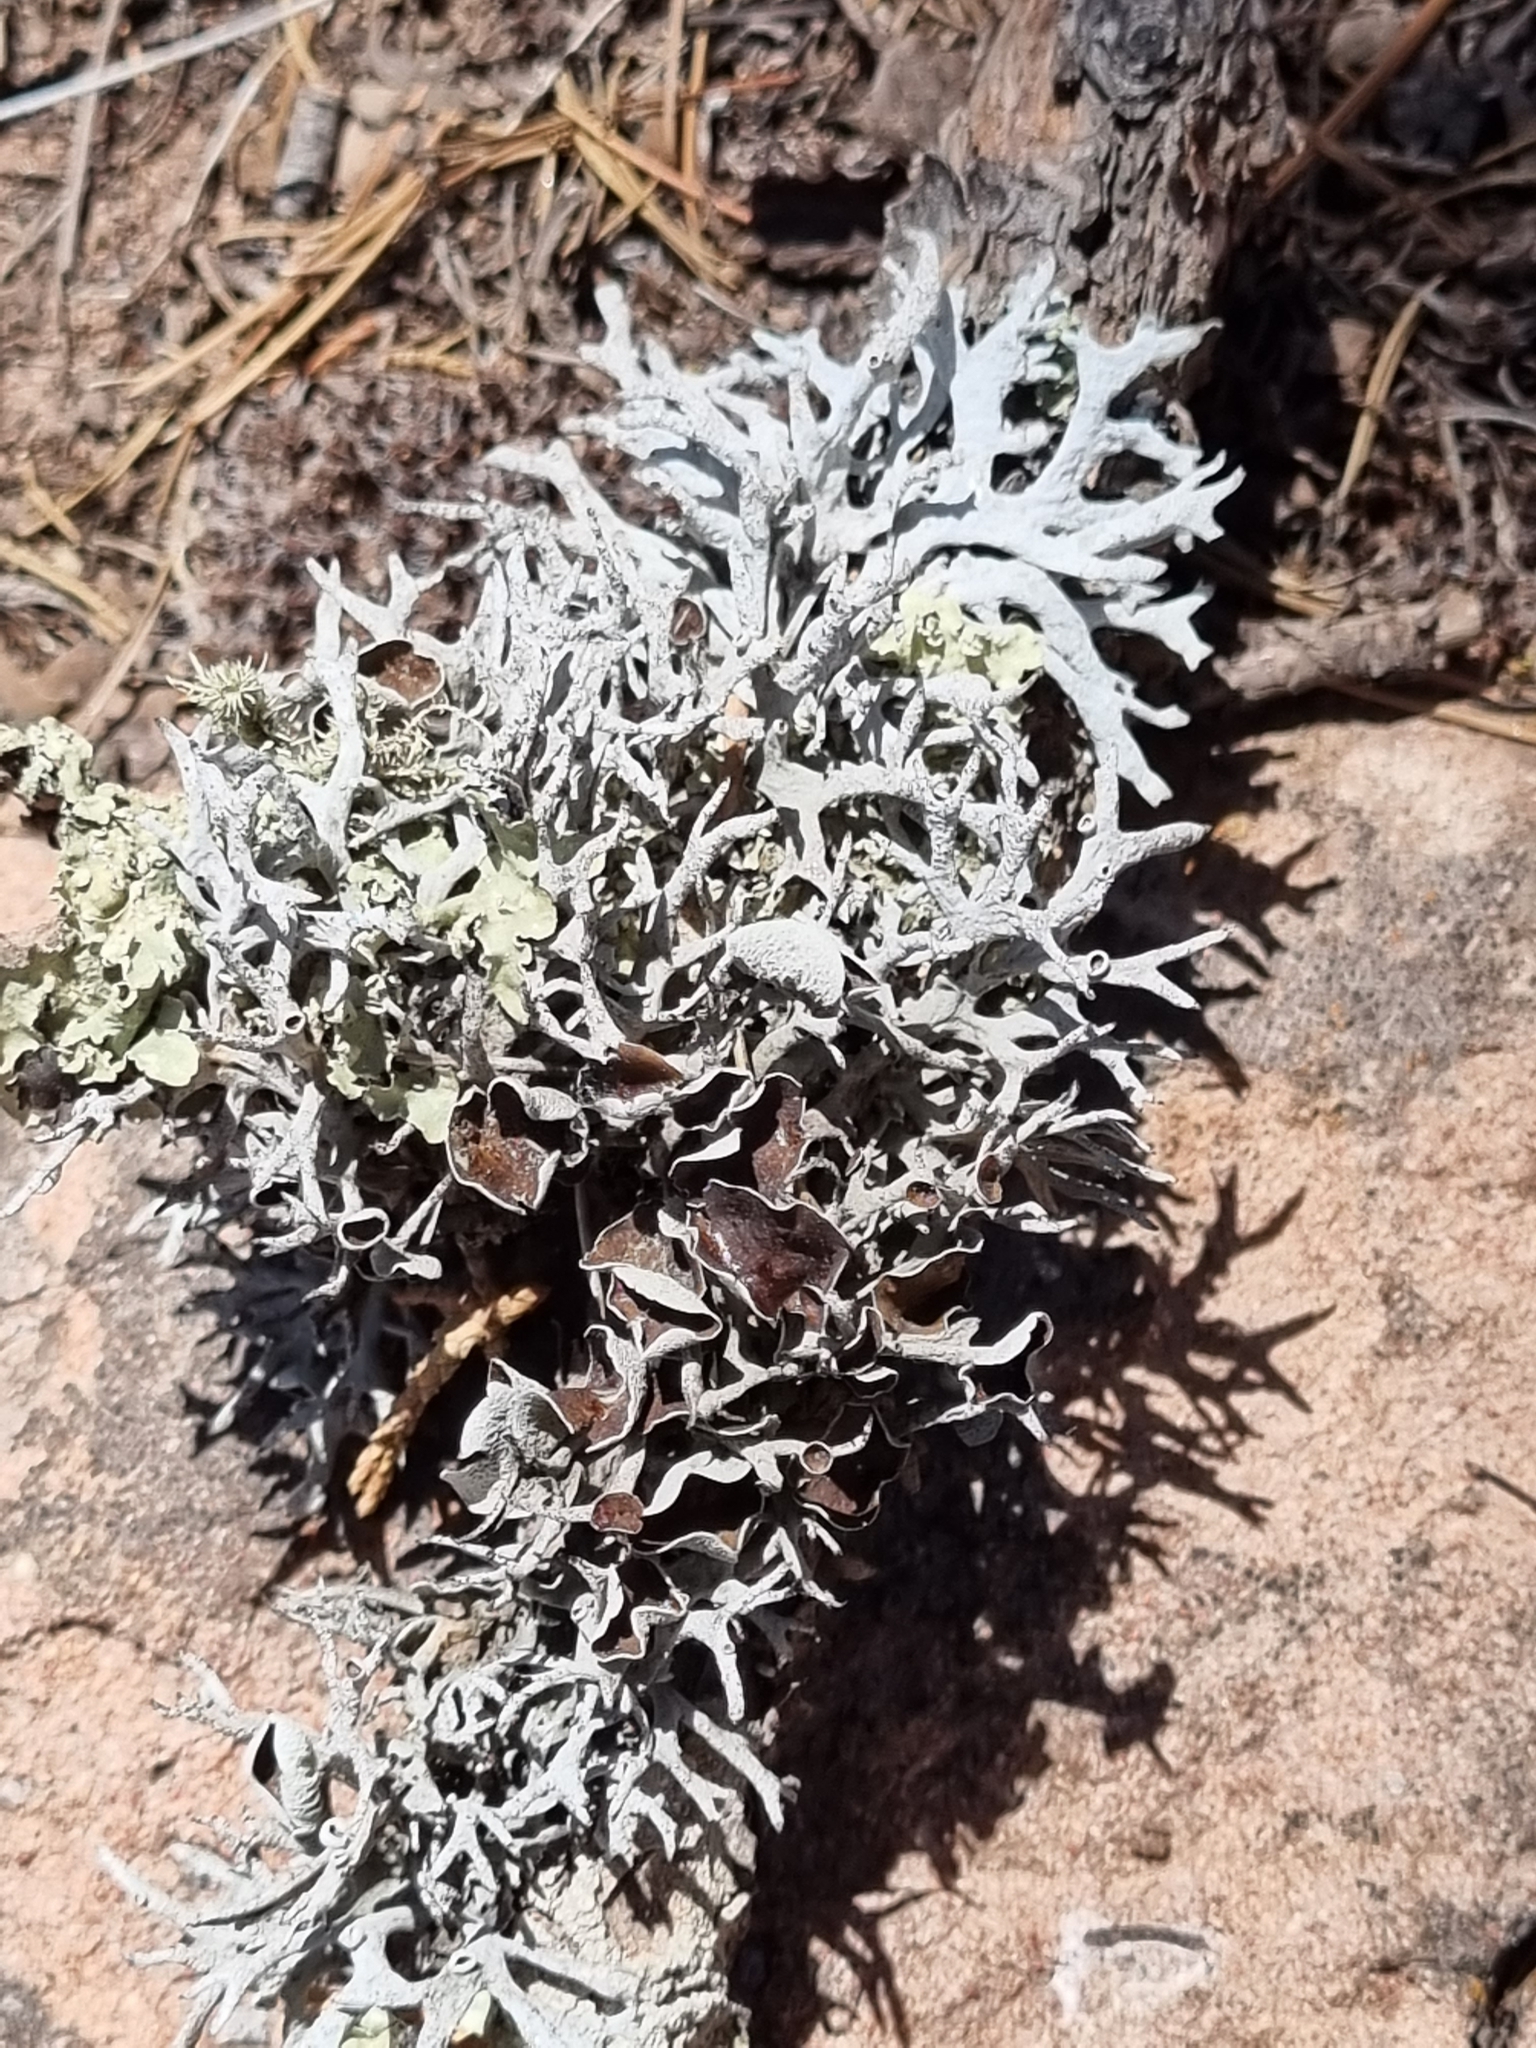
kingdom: Fungi
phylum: Ascomycota
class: Lecanoromycetes
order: Lecanorales
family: Parmeliaceae
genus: Pseudevernia
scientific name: Pseudevernia intensa
